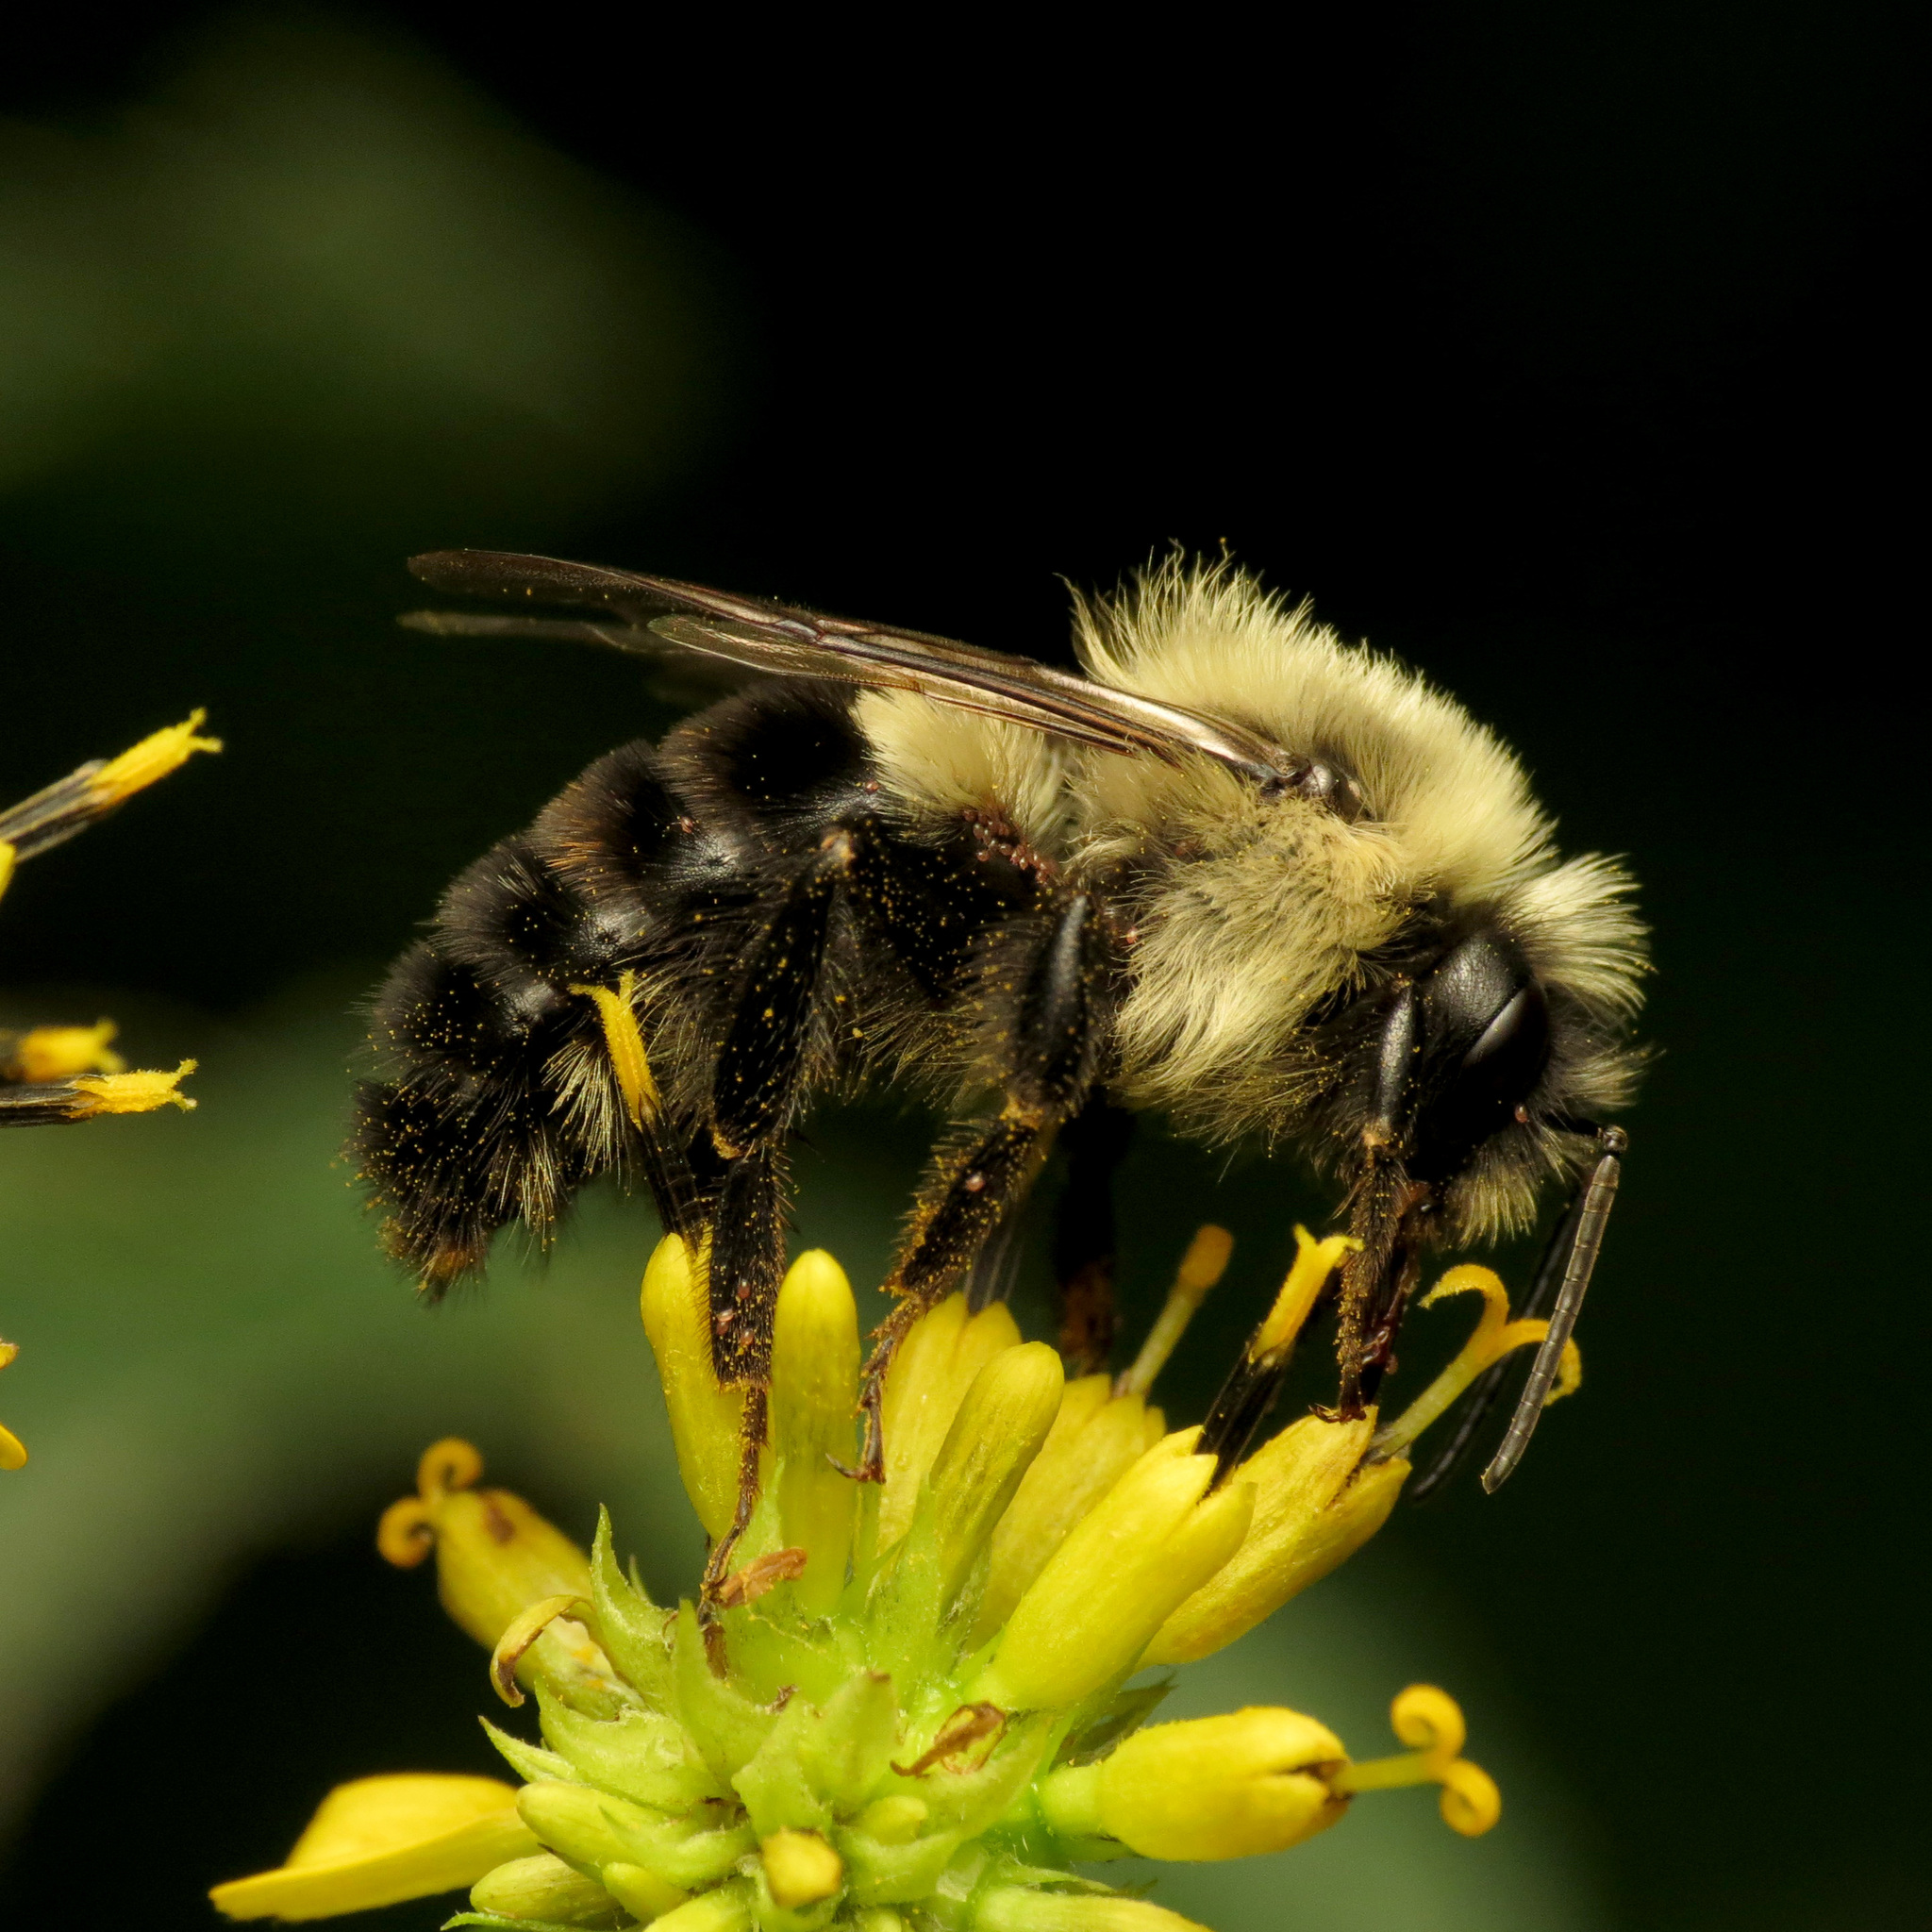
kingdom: Animalia
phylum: Arthropoda
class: Insecta
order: Hymenoptera
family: Apidae
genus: Bombus
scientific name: Bombus impatiens
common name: Common eastern bumble bee
